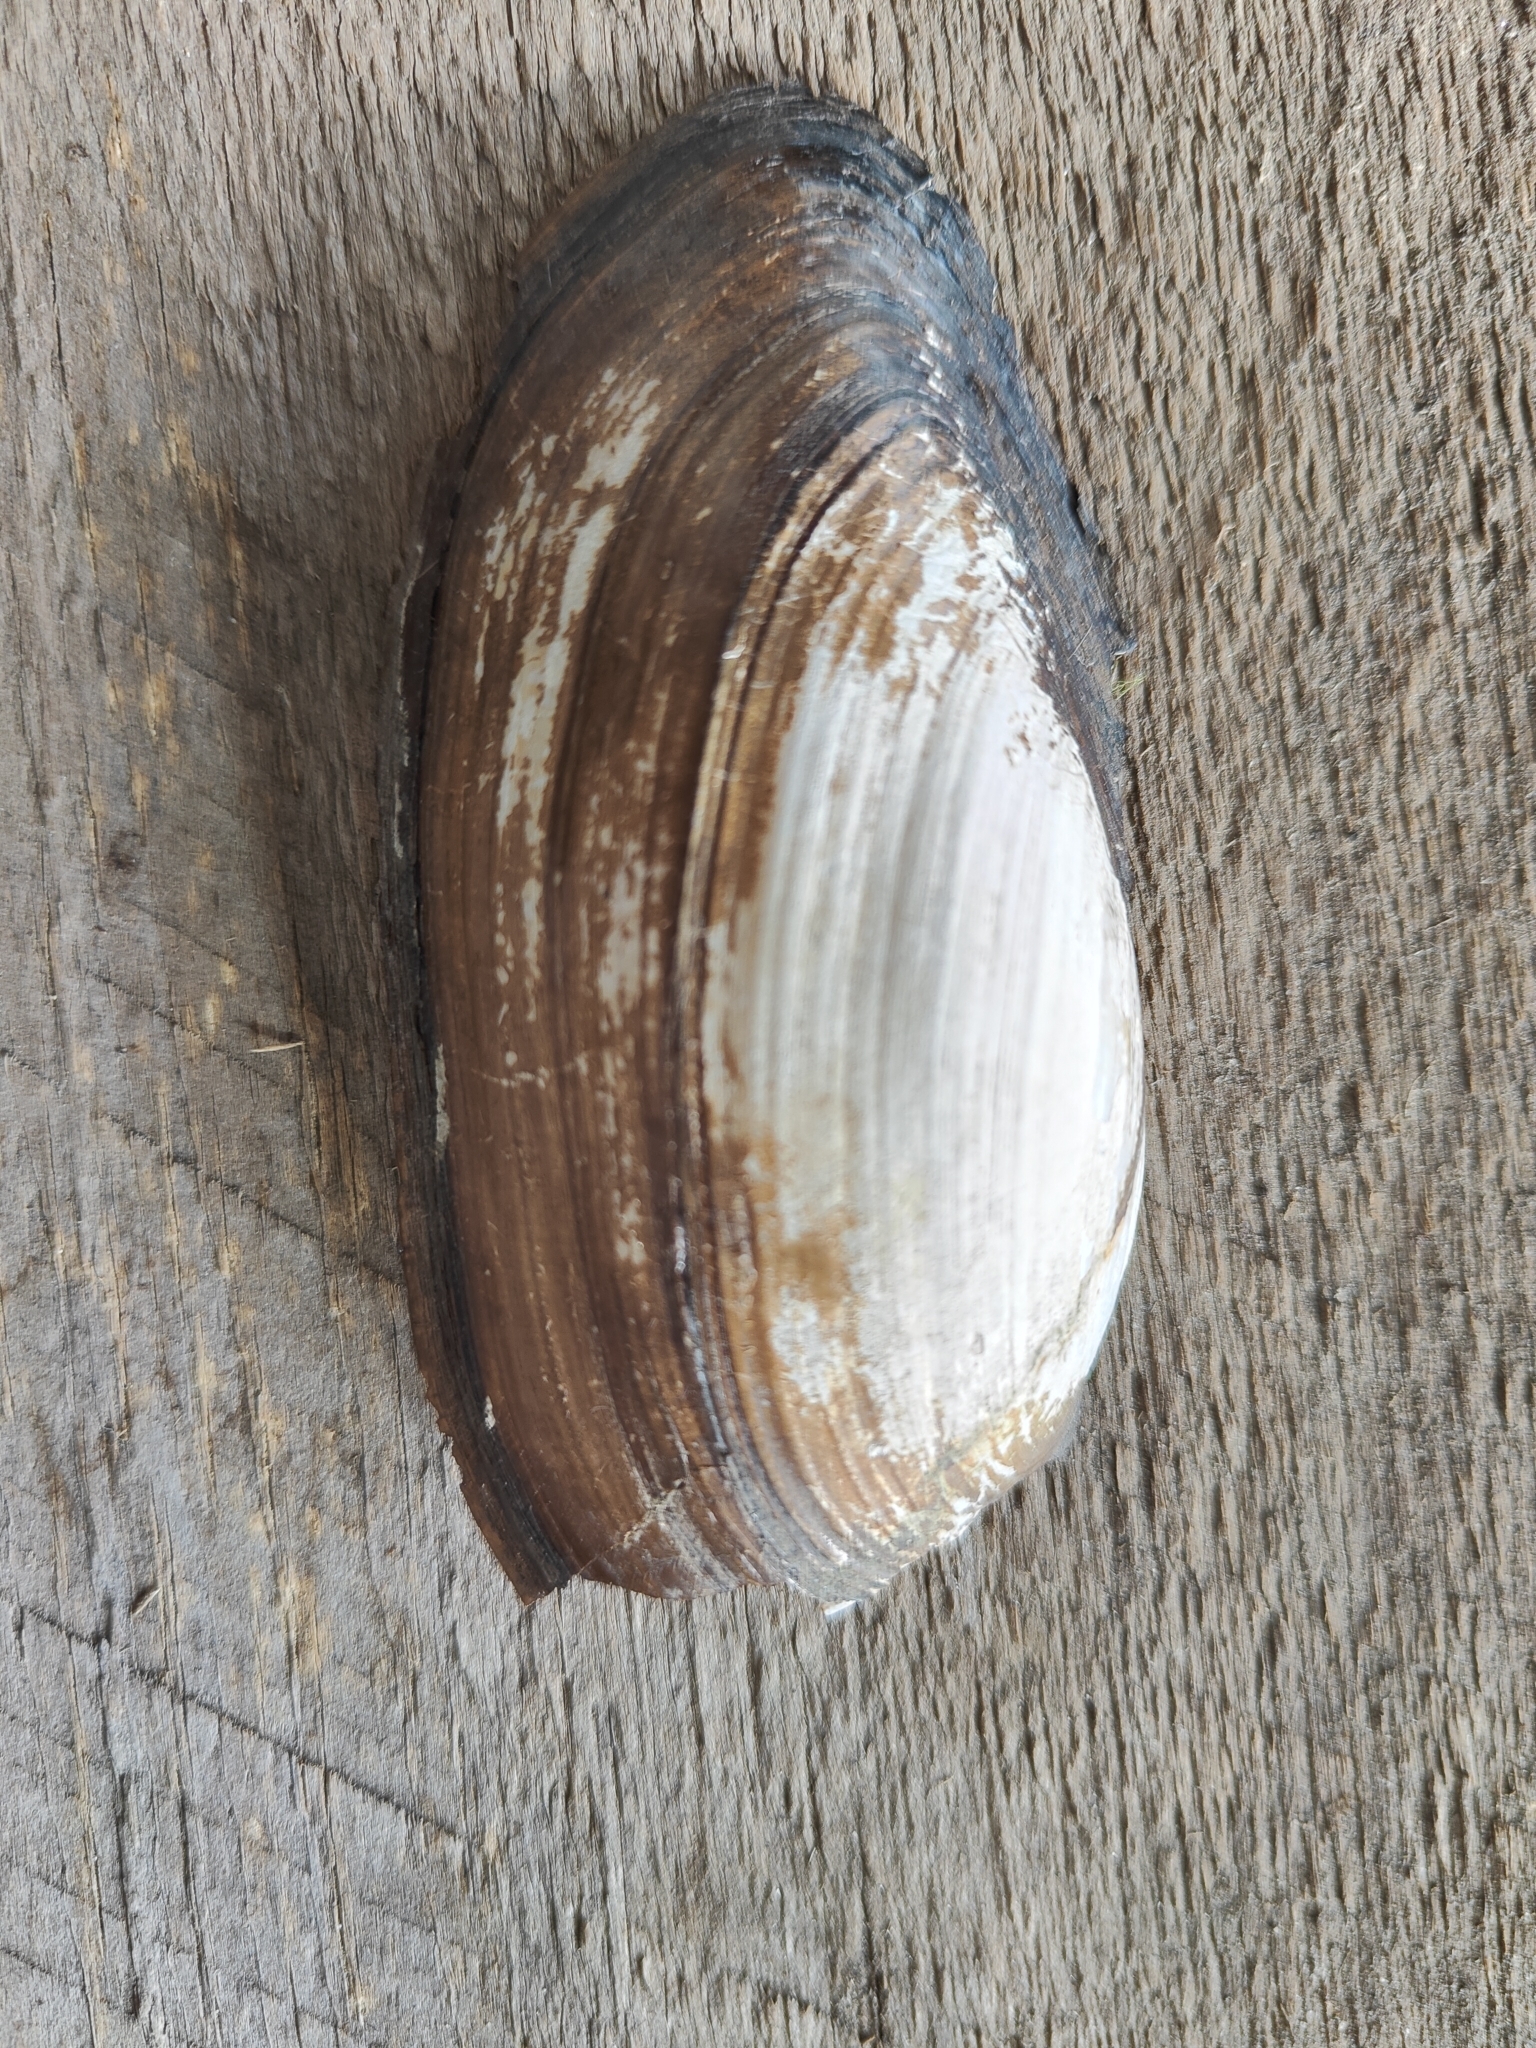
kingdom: Animalia
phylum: Mollusca
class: Bivalvia
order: Unionida
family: Unionidae
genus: Utterbackia
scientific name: Utterbackia imbecillis
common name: Paper pondshell
